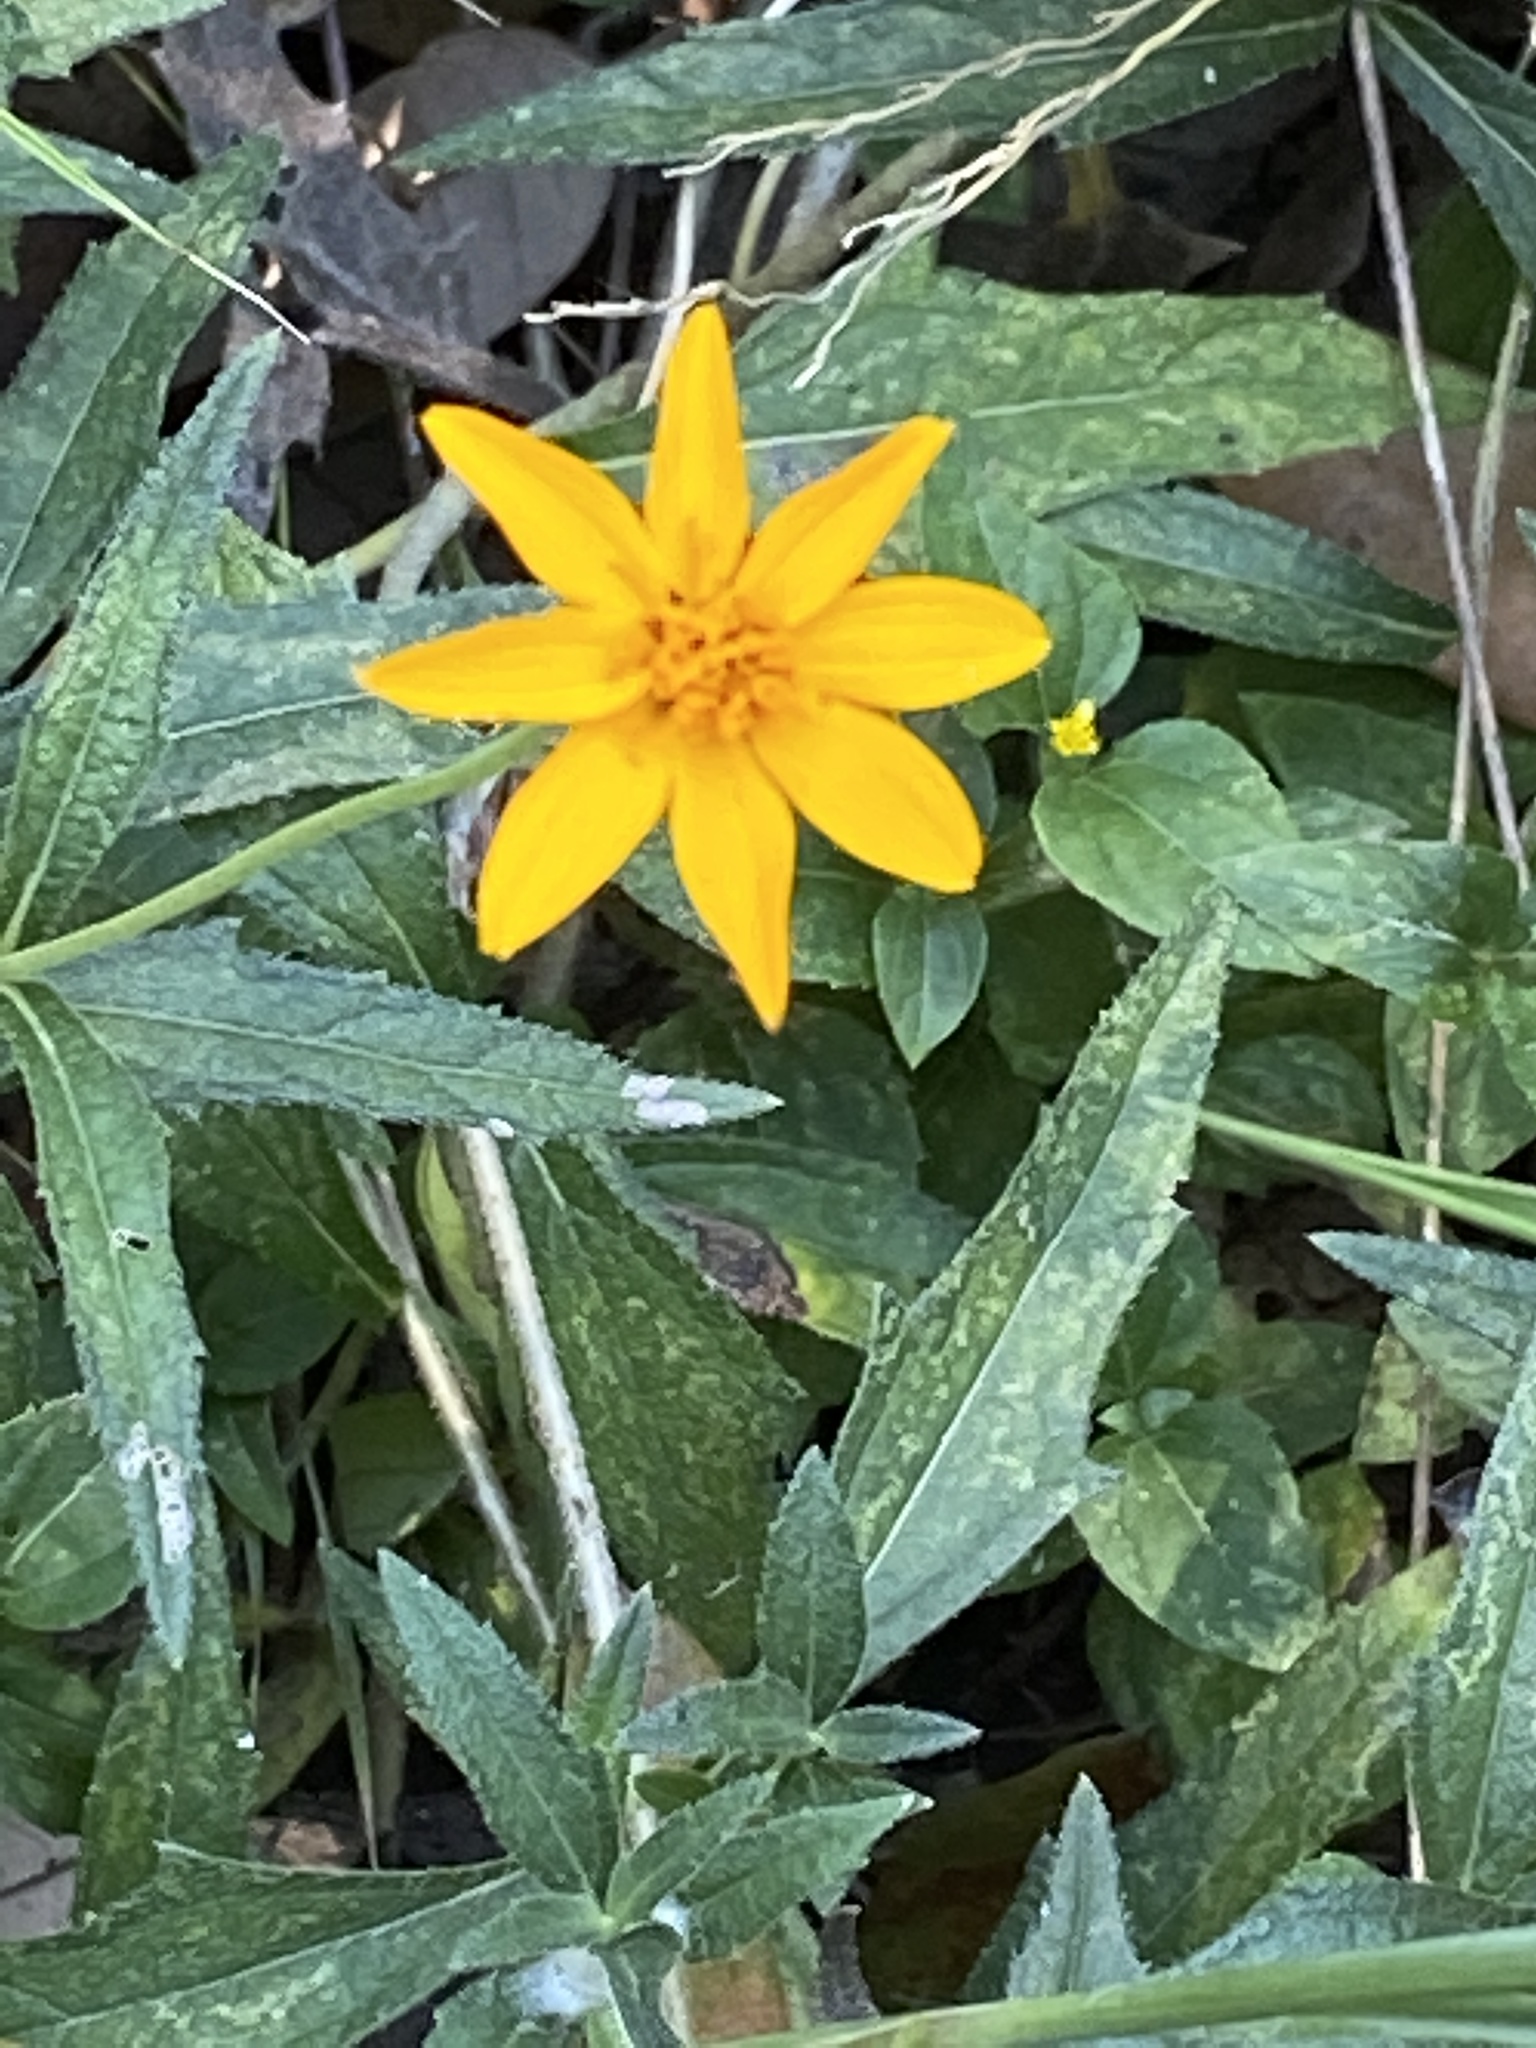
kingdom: Plantae
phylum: Tracheophyta
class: Magnoliopsida
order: Asterales
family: Asteraceae
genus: Wedelia
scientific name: Wedelia acapulcensis
